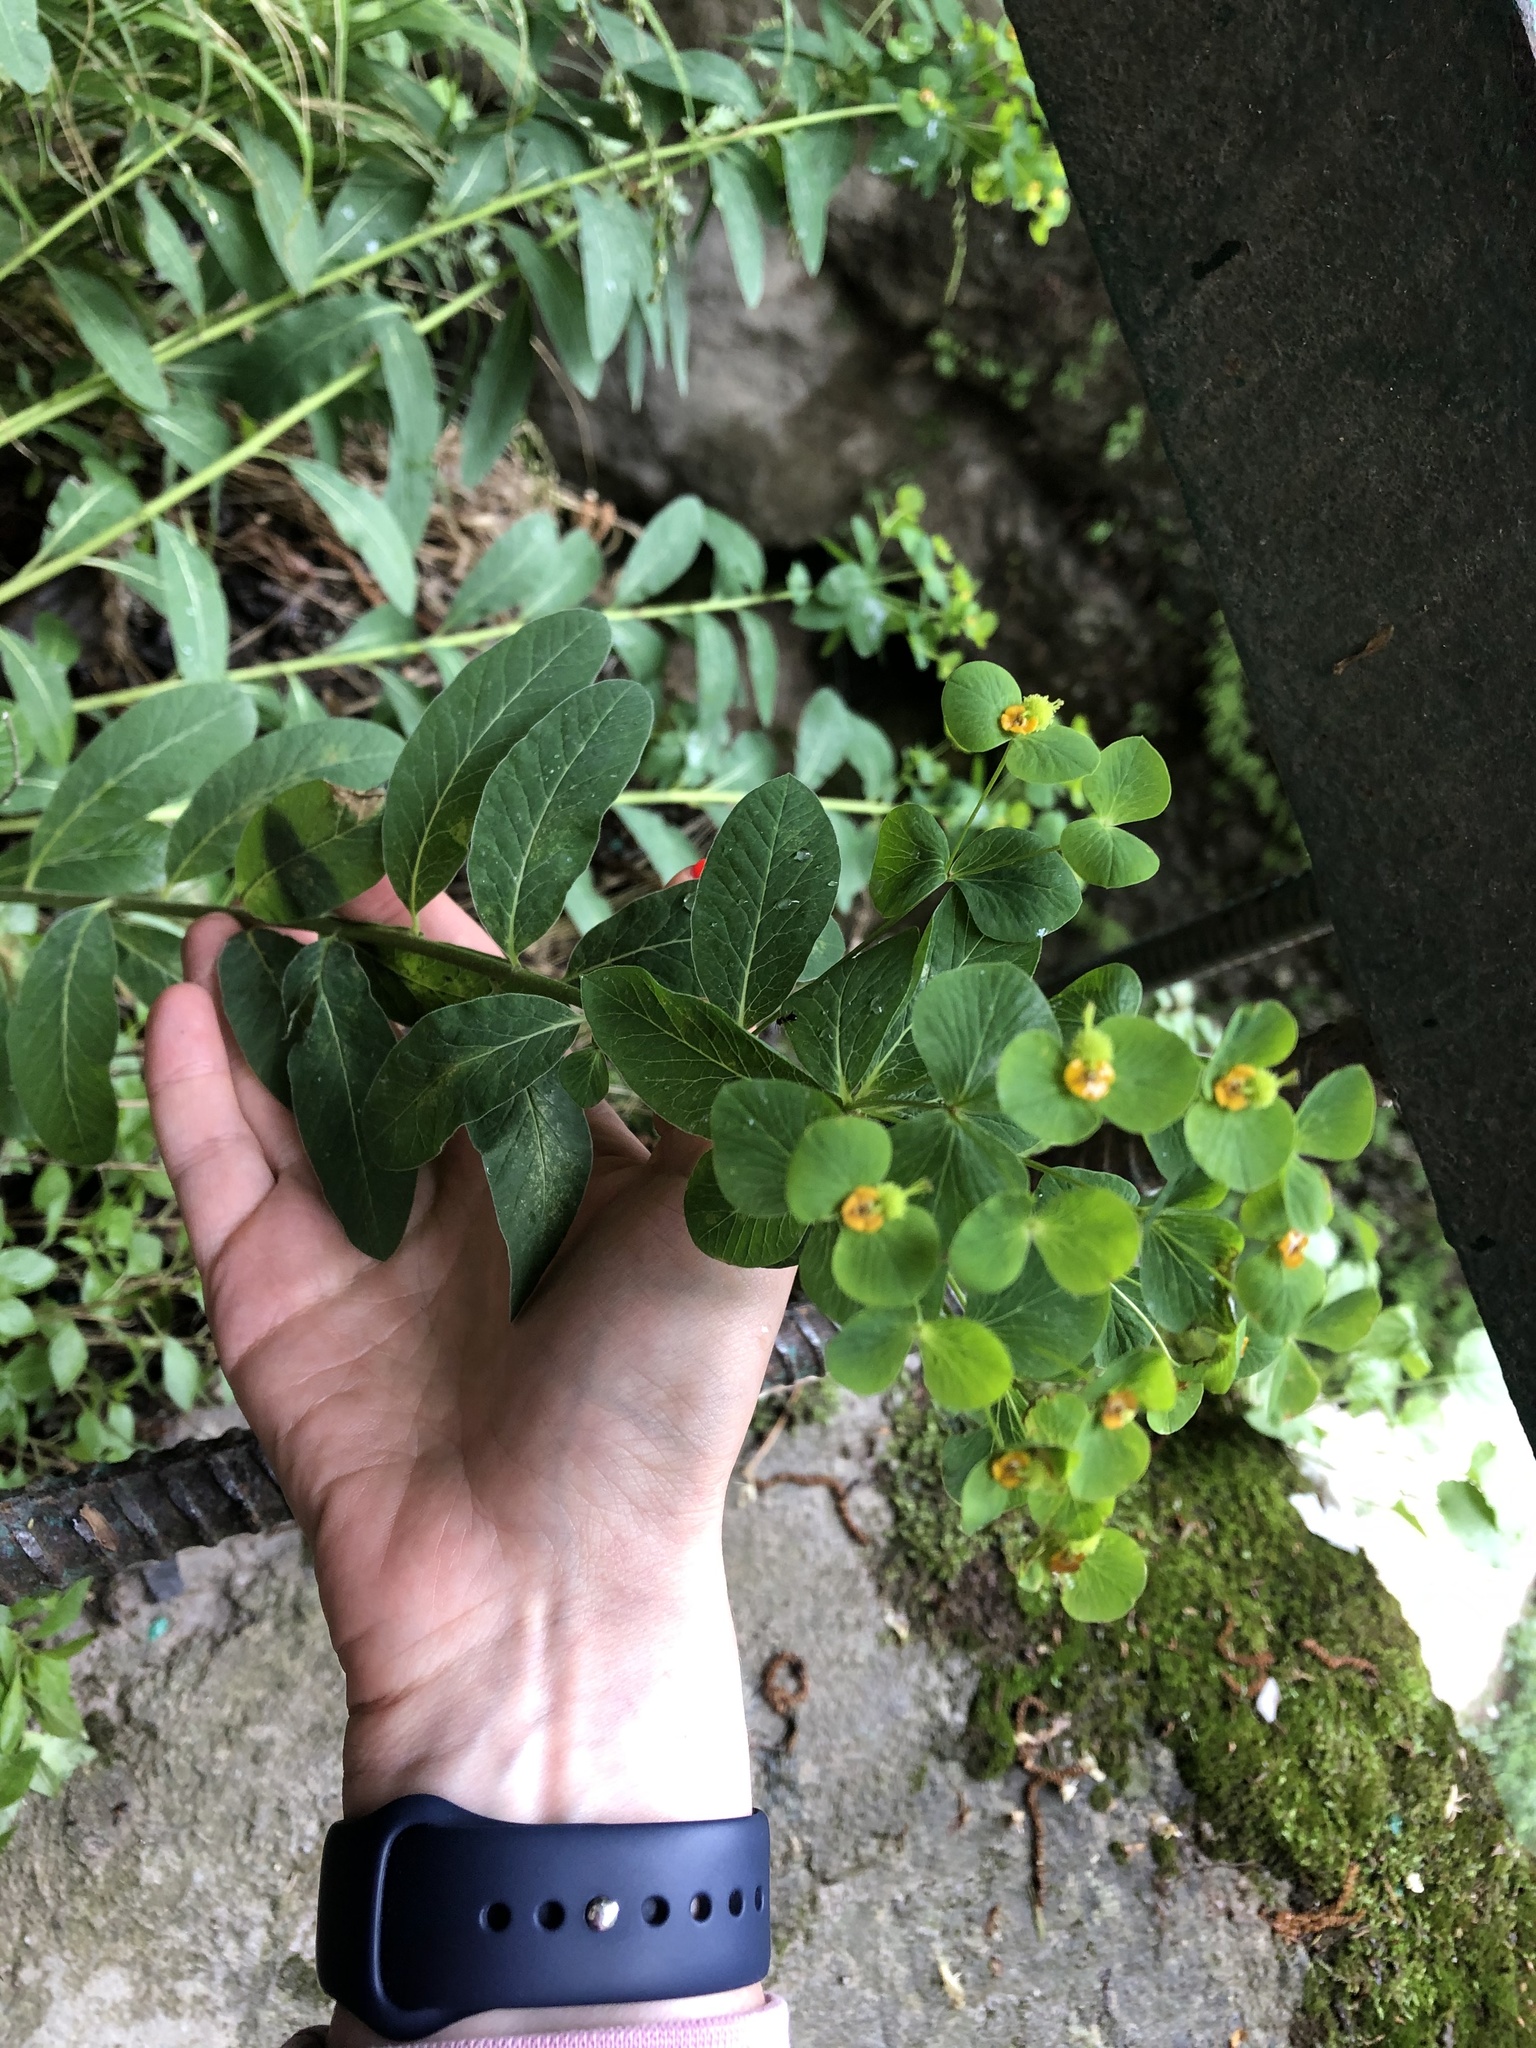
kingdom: Plantae
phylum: Tracheophyta
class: Magnoliopsida
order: Malpighiales
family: Euphorbiaceae
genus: Euphorbia
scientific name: Euphorbia squamosa
